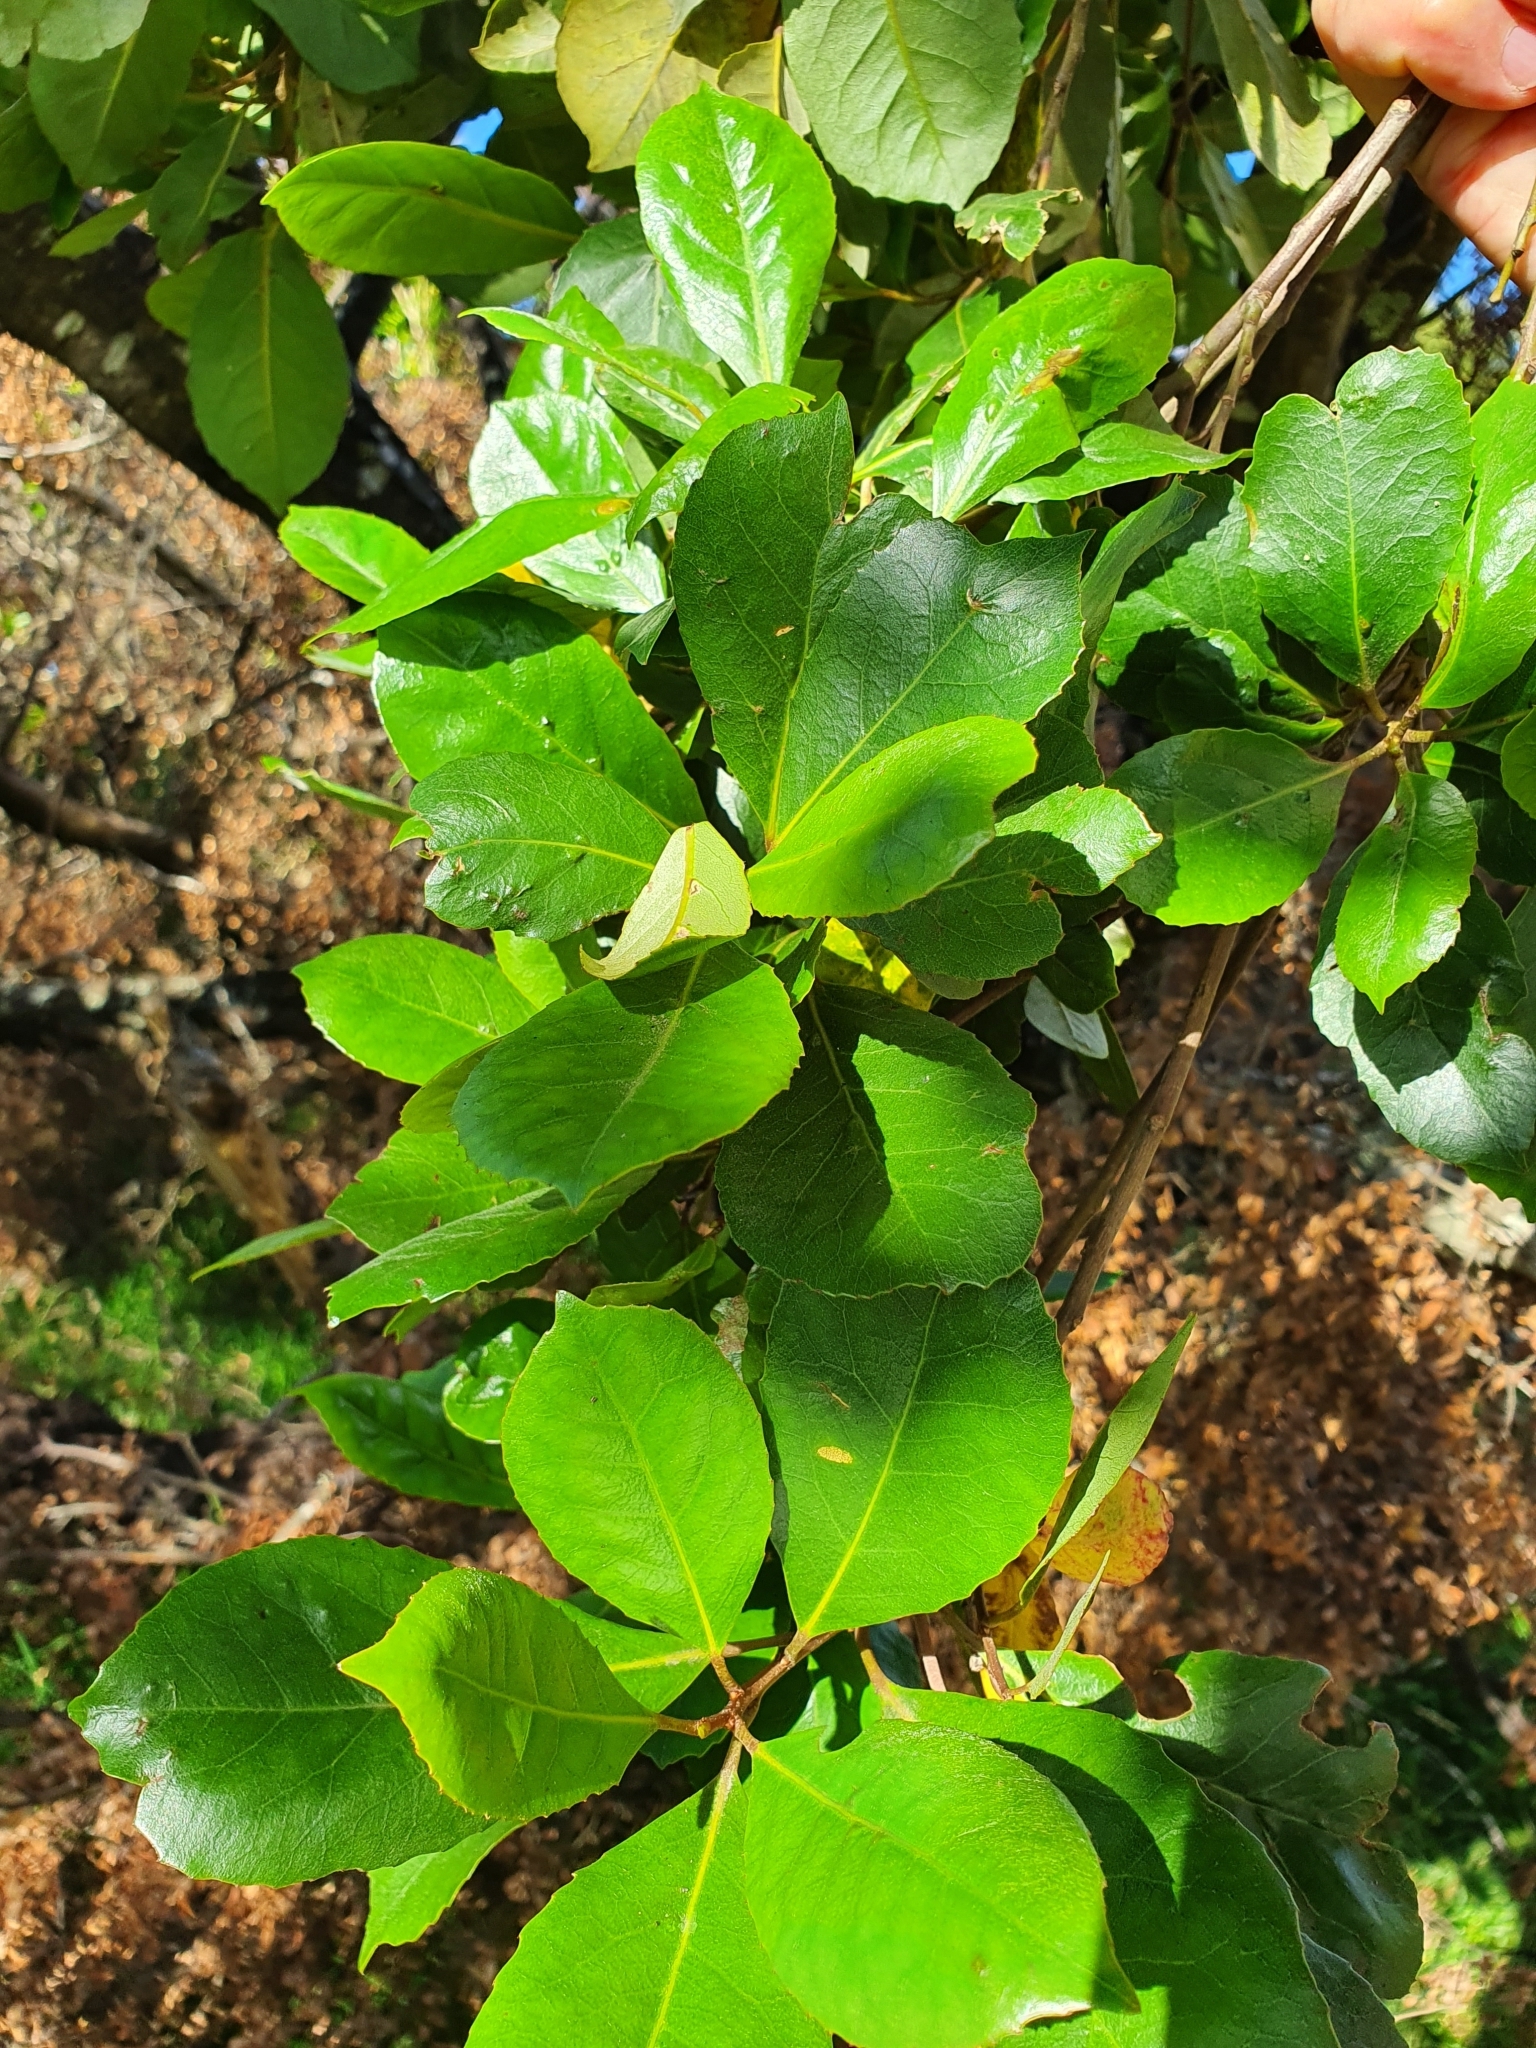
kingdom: Plantae
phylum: Tracheophyta
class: Magnoliopsida
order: Oxalidales
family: Elaeocarpaceae
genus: Elaeocarpus
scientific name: Elaeocarpus dentatus
